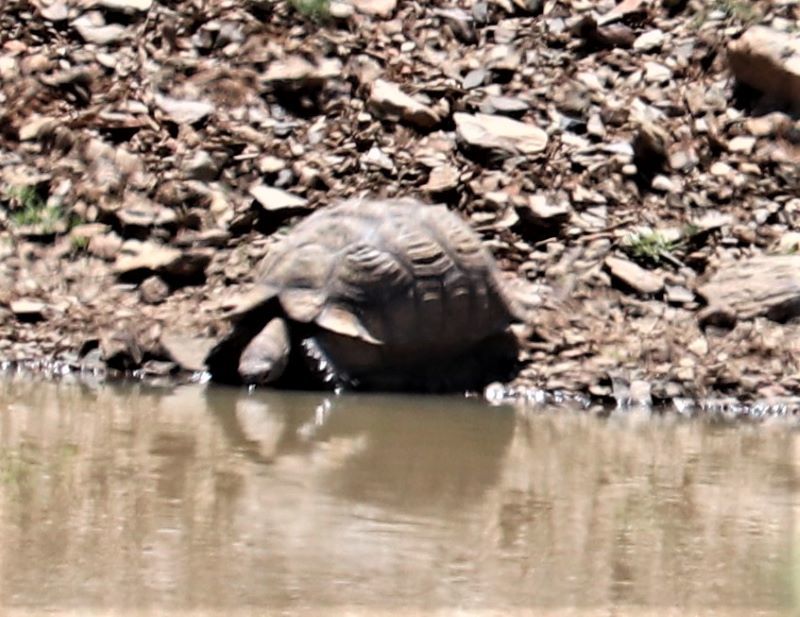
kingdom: Animalia
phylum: Chordata
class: Testudines
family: Testudinidae
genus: Stigmochelys
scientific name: Stigmochelys pardalis
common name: Leopard tortoise
